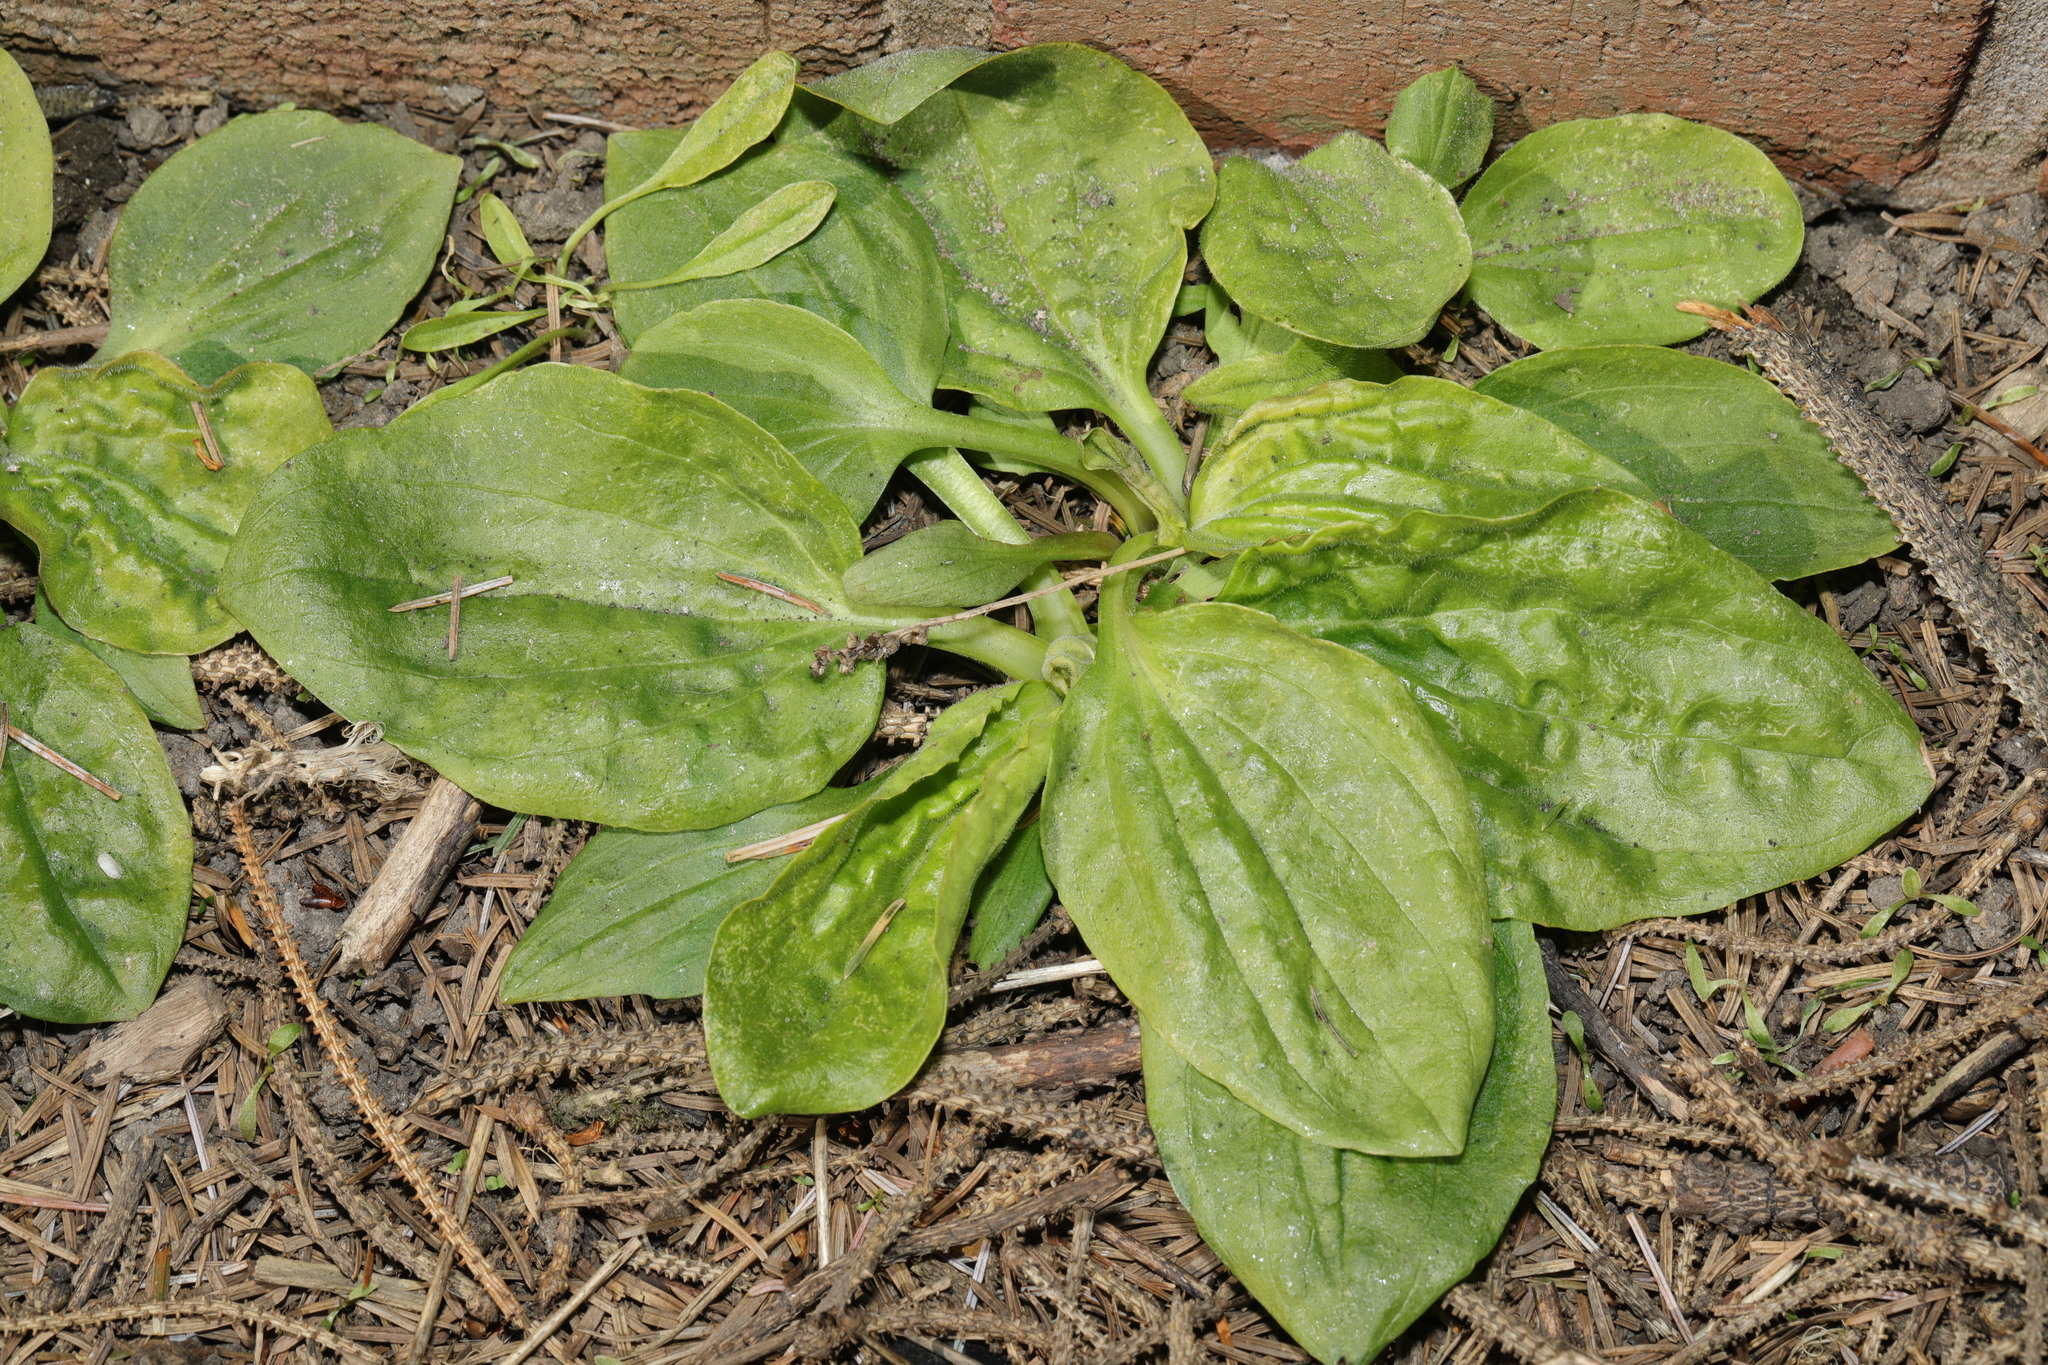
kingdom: Plantae
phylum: Tracheophyta
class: Magnoliopsida
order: Lamiales
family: Plantaginaceae
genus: Plantago
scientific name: Plantago major
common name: Common plantain
